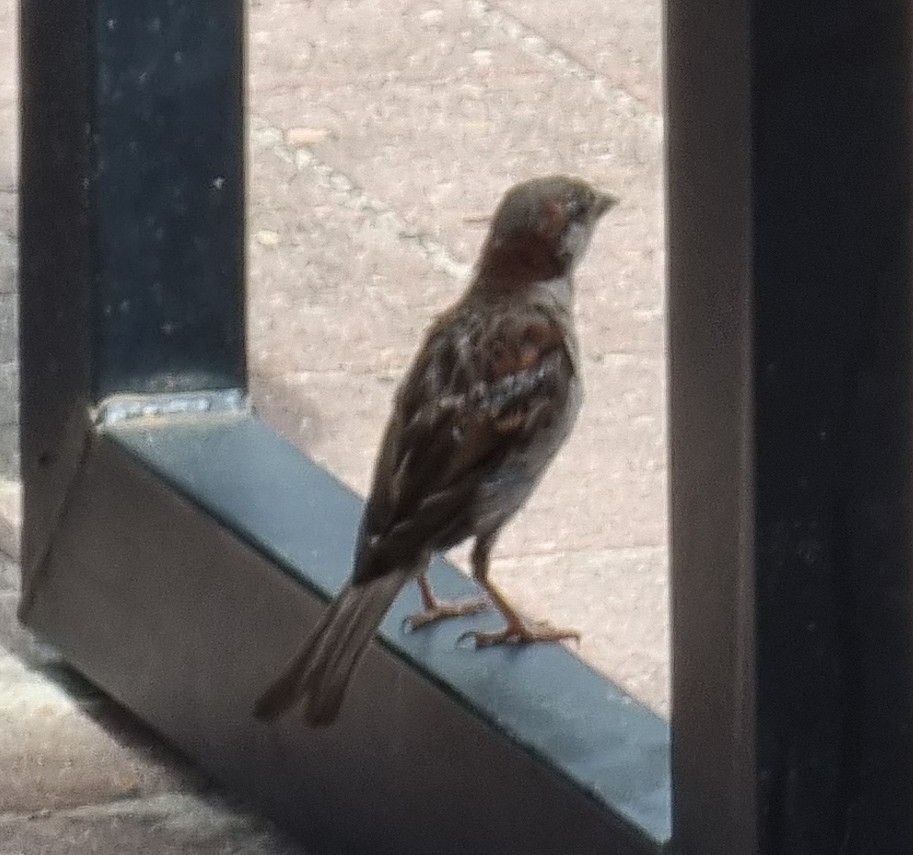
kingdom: Animalia
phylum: Chordata
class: Aves
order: Passeriformes
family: Passeridae
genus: Passer
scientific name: Passer domesticus
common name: House sparrow
